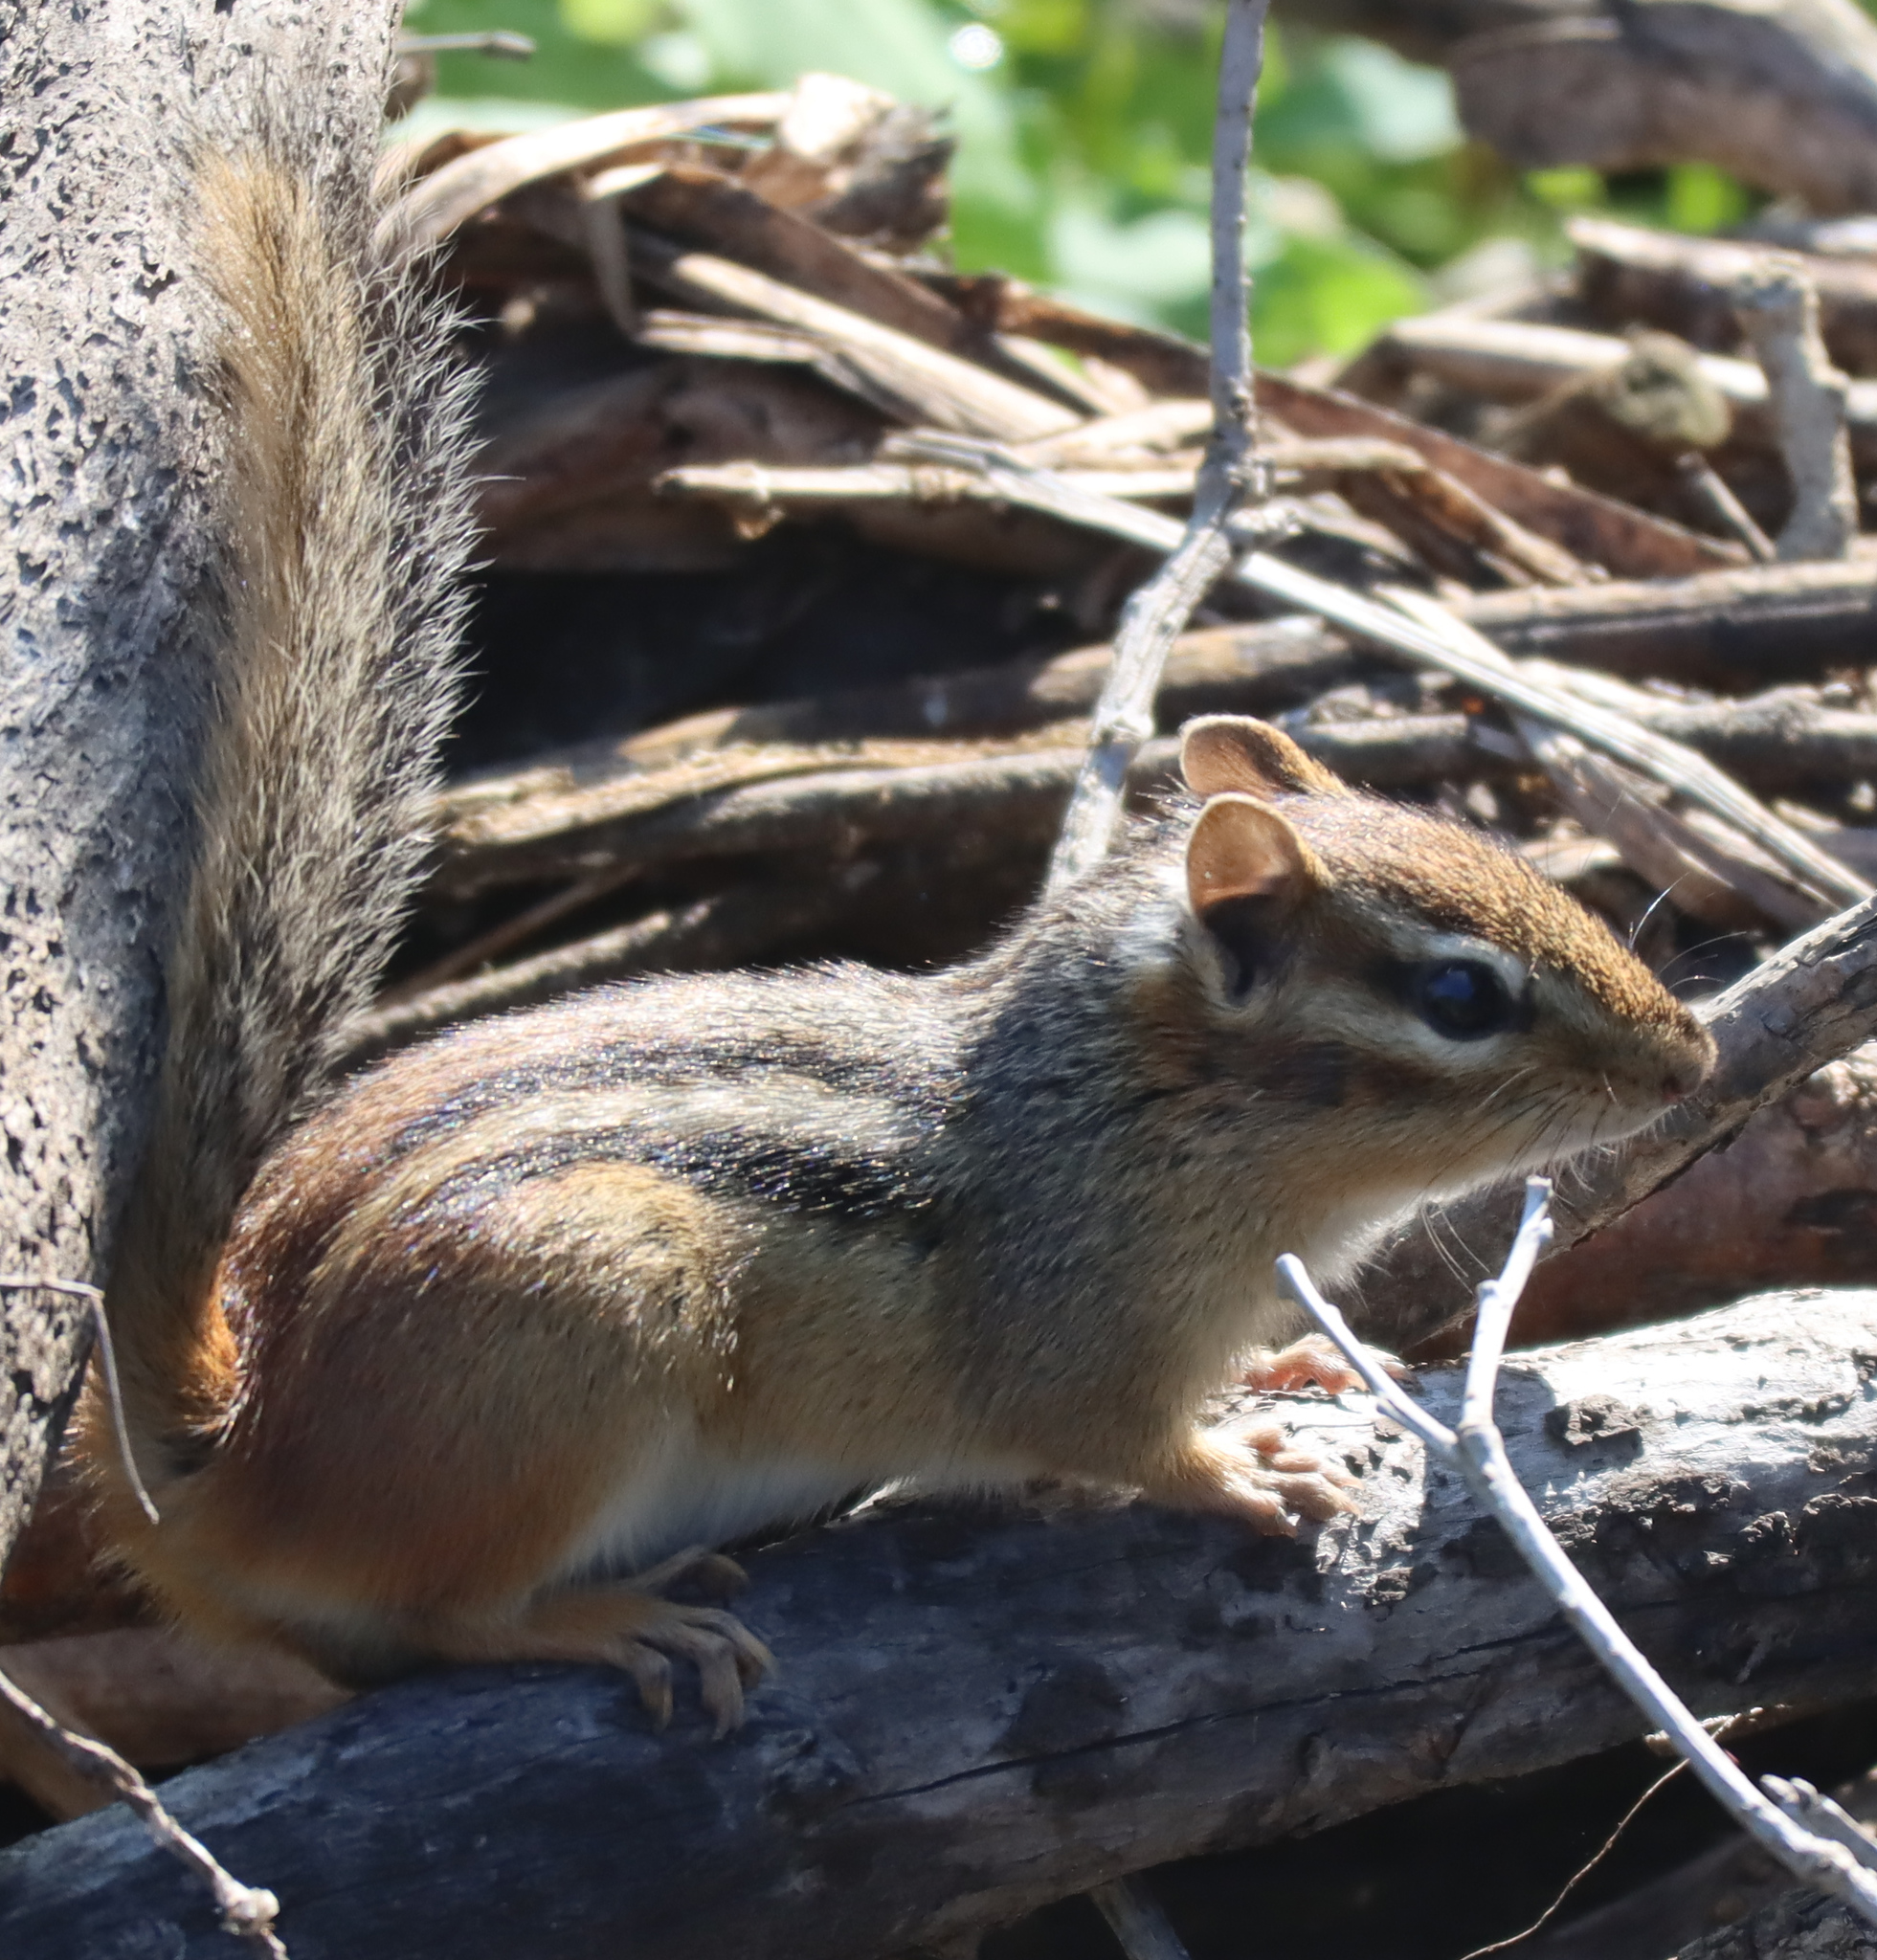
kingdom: Animalia
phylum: Chordata
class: Mammalia
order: Rodentia
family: Sciuridae
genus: Tamias
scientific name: Tamias striatus
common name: Eastern chipmunk
